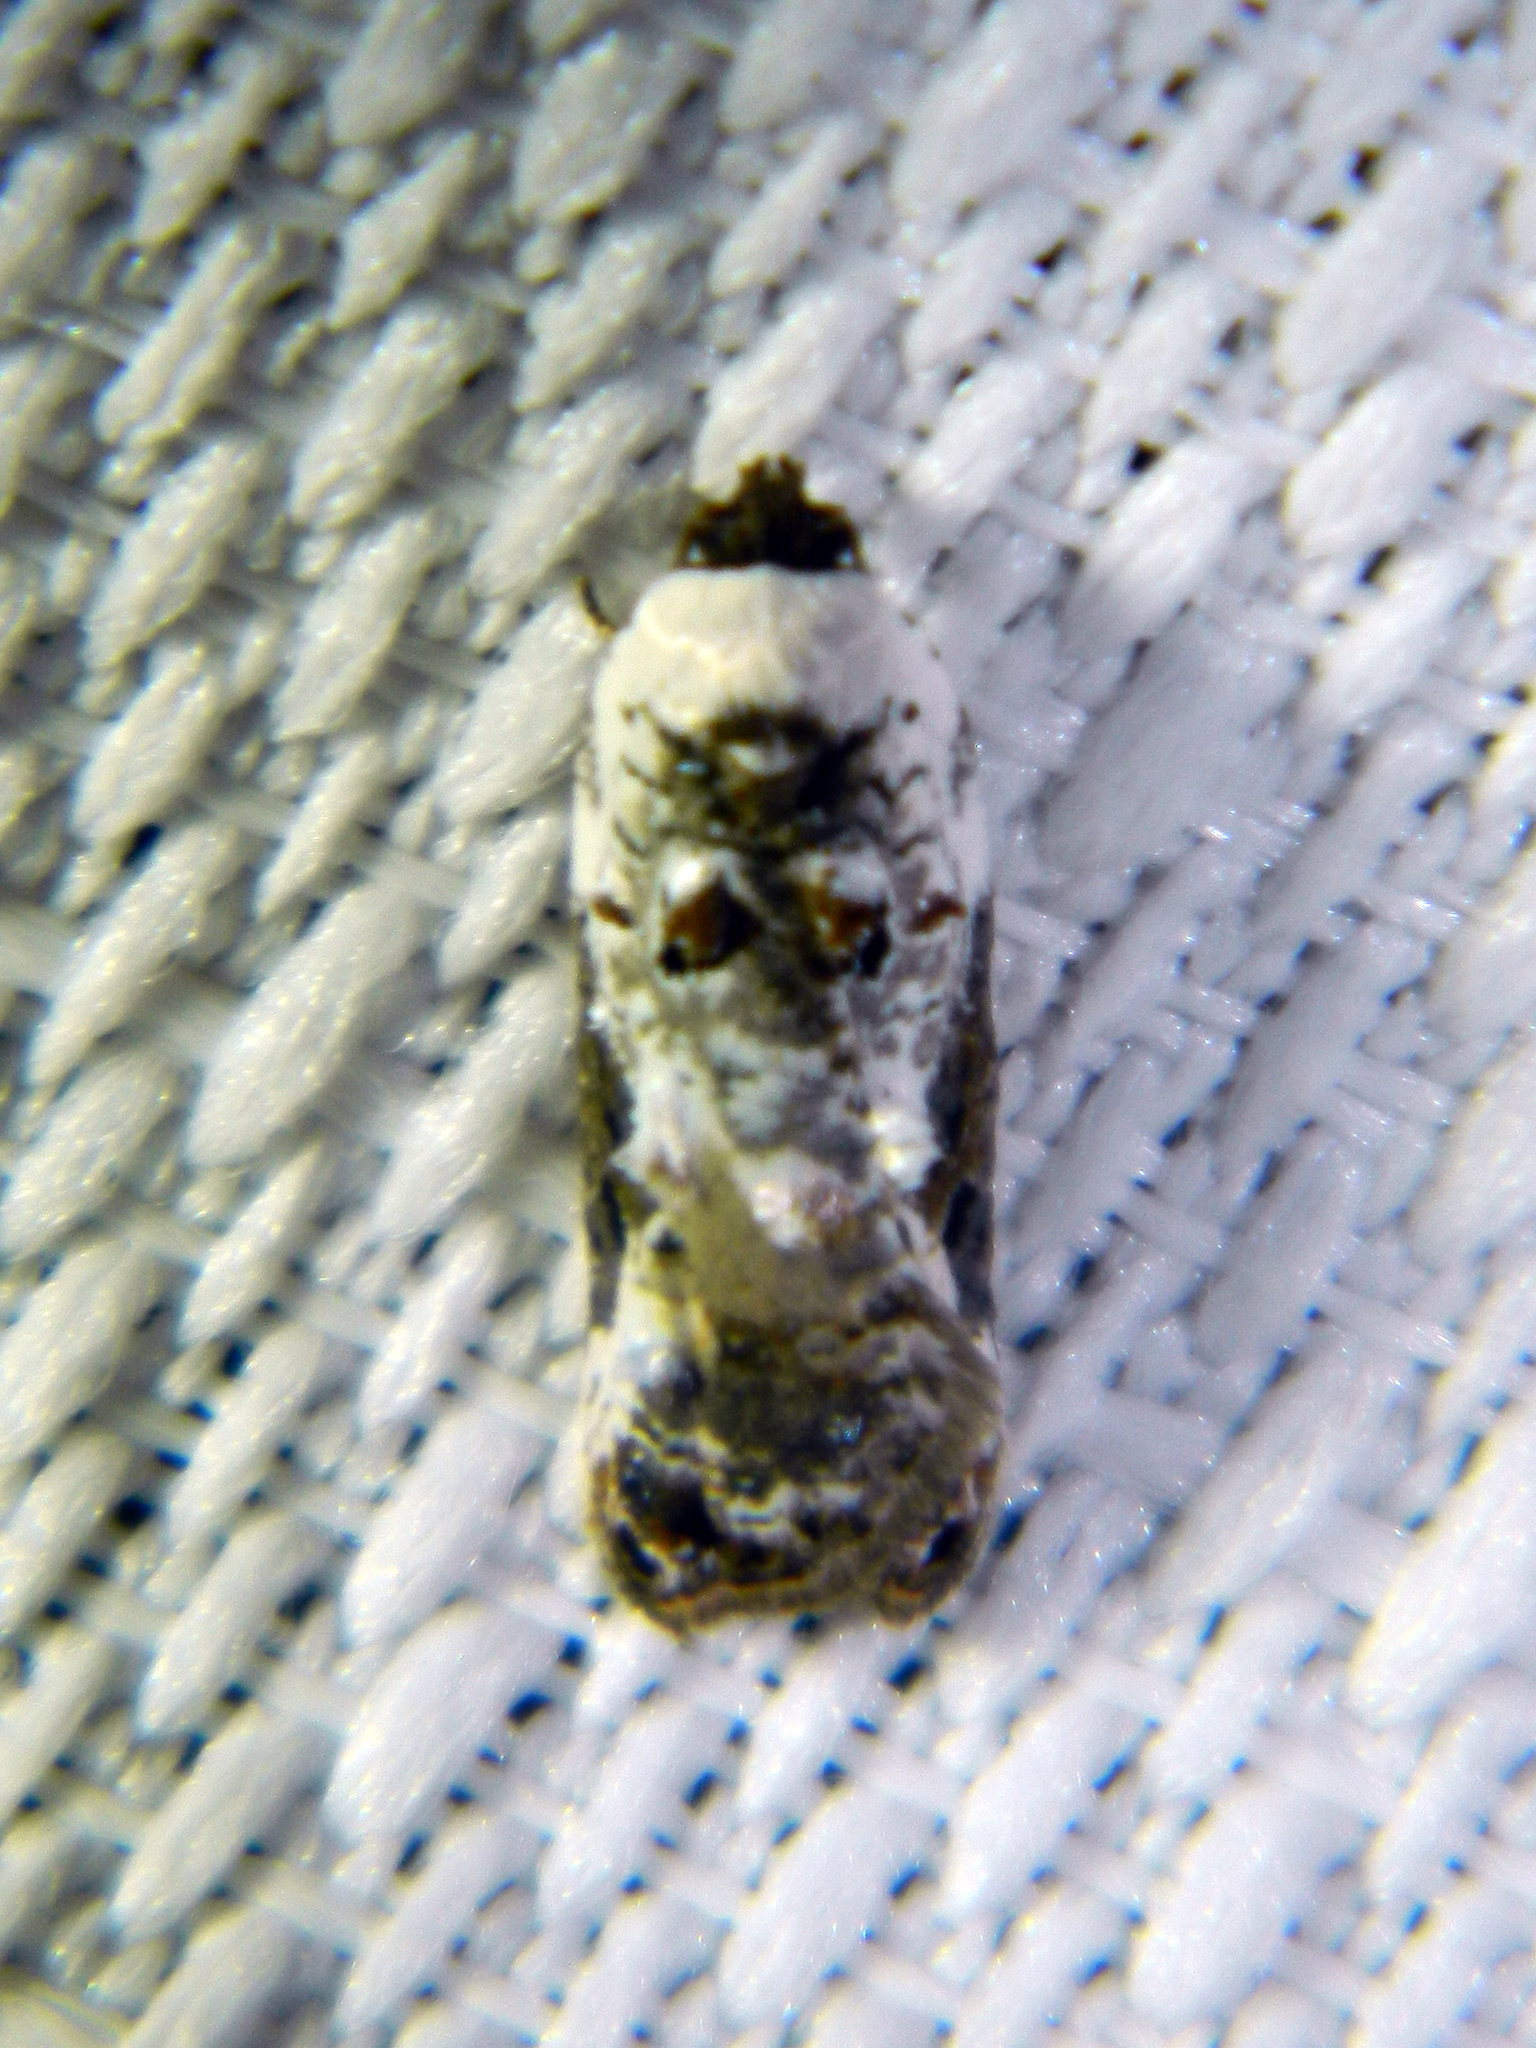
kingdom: Animalia
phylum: Arthropoda
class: Insecta
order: Lepidoptera
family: Tortricidae
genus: Acleris
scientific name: Acleris nivisellana
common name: Snowy-shouldered acleris moth
